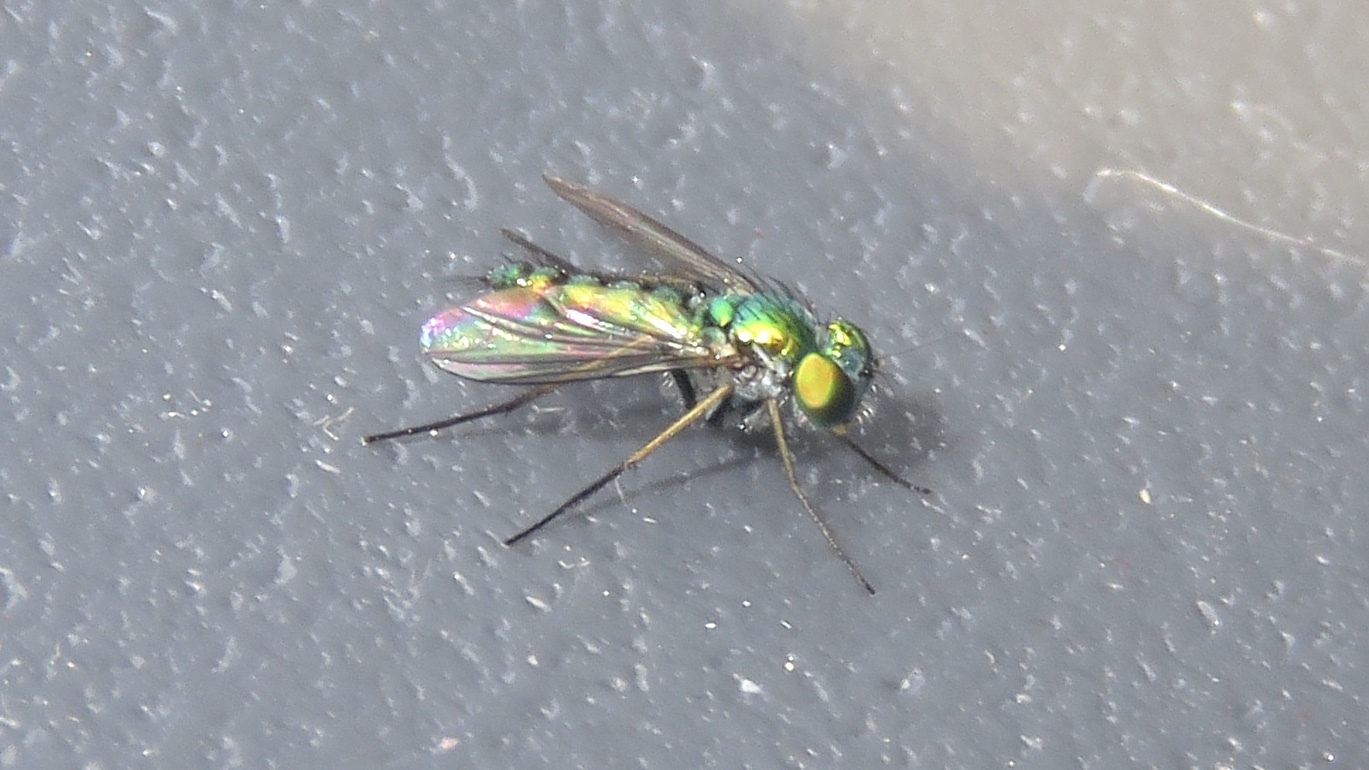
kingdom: Animalia
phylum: Arthropoda
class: Insecta
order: Diptera
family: Dolichopodidae
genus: Condylostylus
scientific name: Condylostylus caudatus
